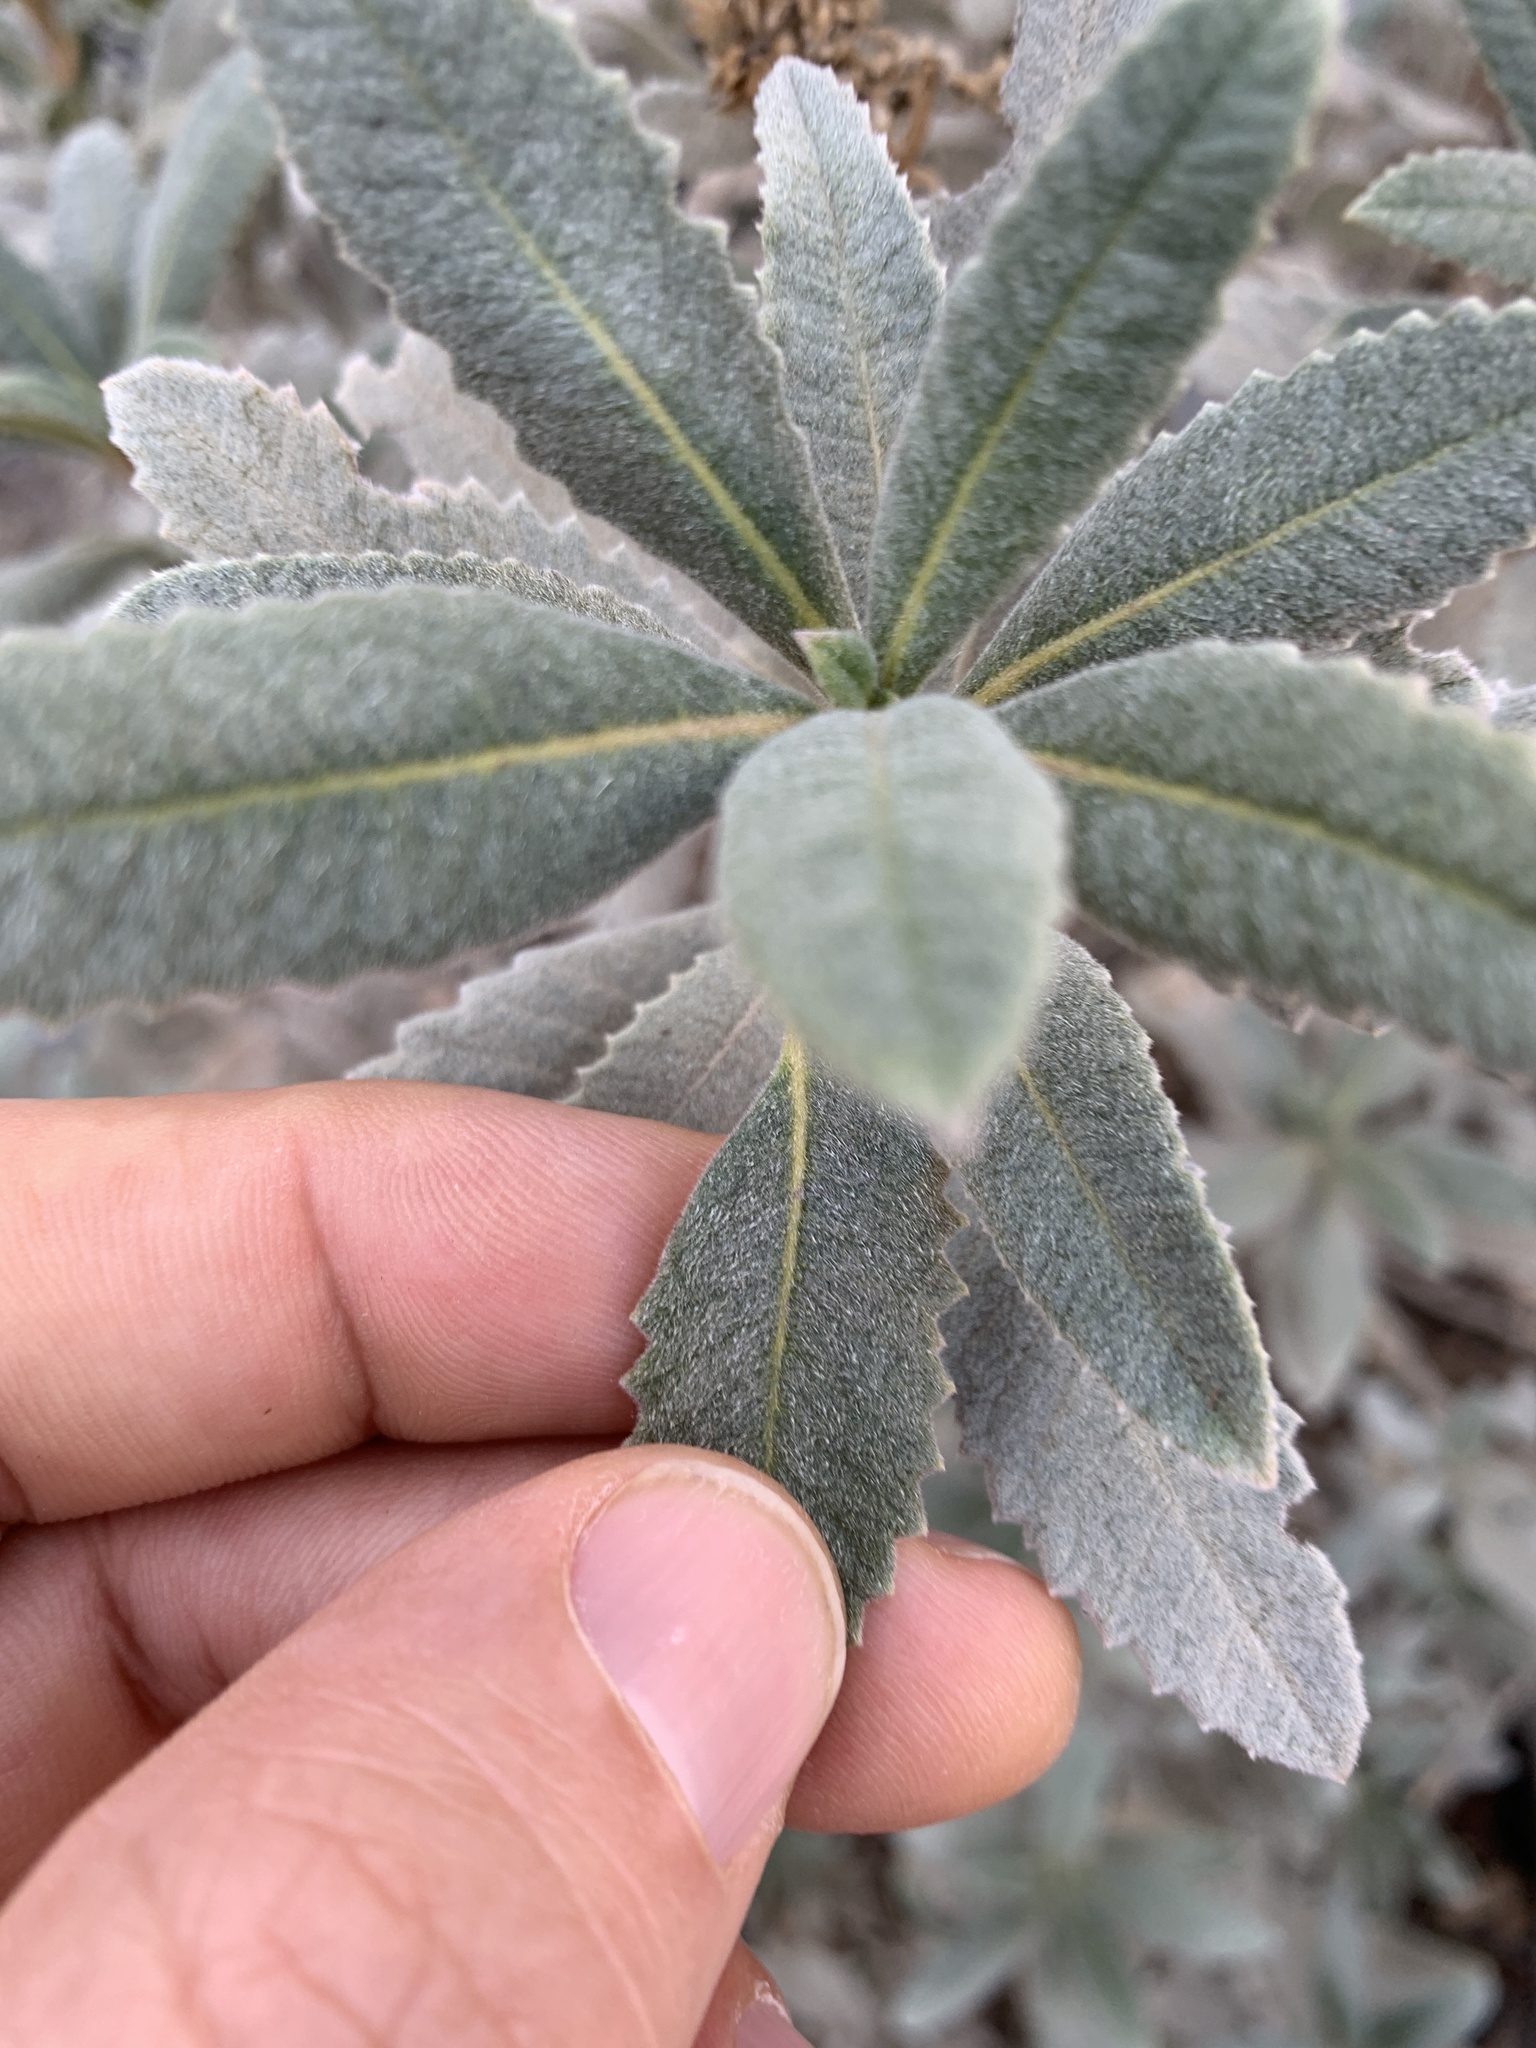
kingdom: Plantae
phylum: Tracheophyta
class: Magnoliopsida
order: Boraginales
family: Namaceae
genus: Eriodictyon
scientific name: Eriodictyon crassifolium
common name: Thick-leaf yerba-santa
